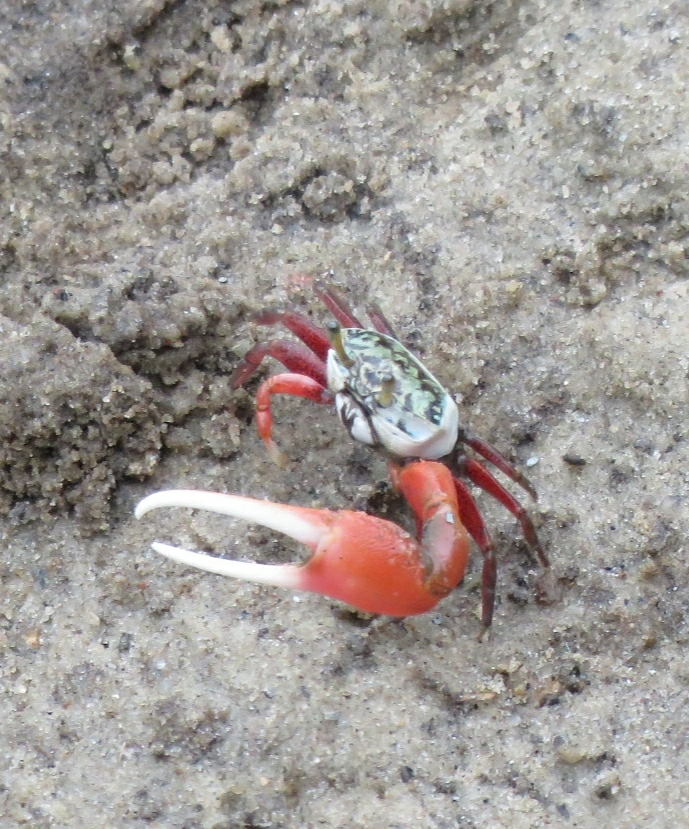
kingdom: Animalia
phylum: Arthropoda
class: Malacostraca
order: Decapoda
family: Ocypodidae
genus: Leptuca
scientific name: Leptuca uruguayensis
